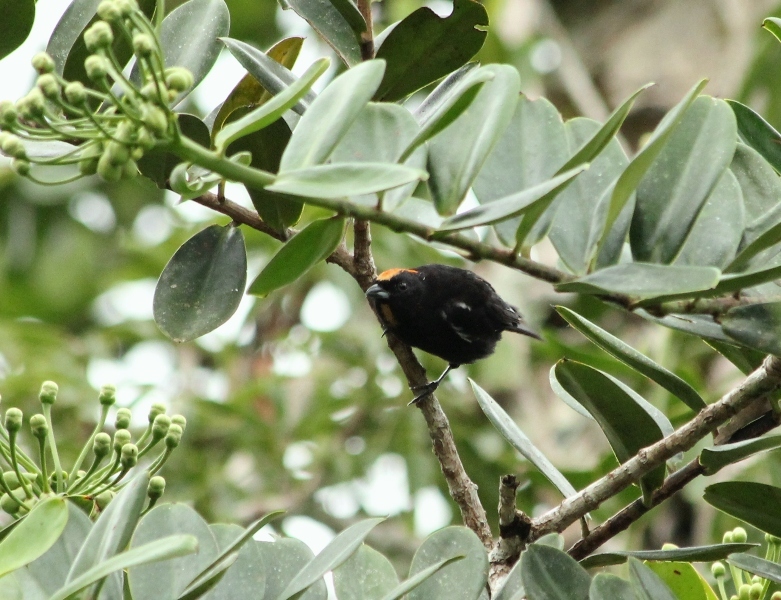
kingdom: Animalia
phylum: Chordata
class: Aves
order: Passeriformes
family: Thraupidae
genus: Loriotus
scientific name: Loriotus cristatus
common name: Flame-crested tanager
